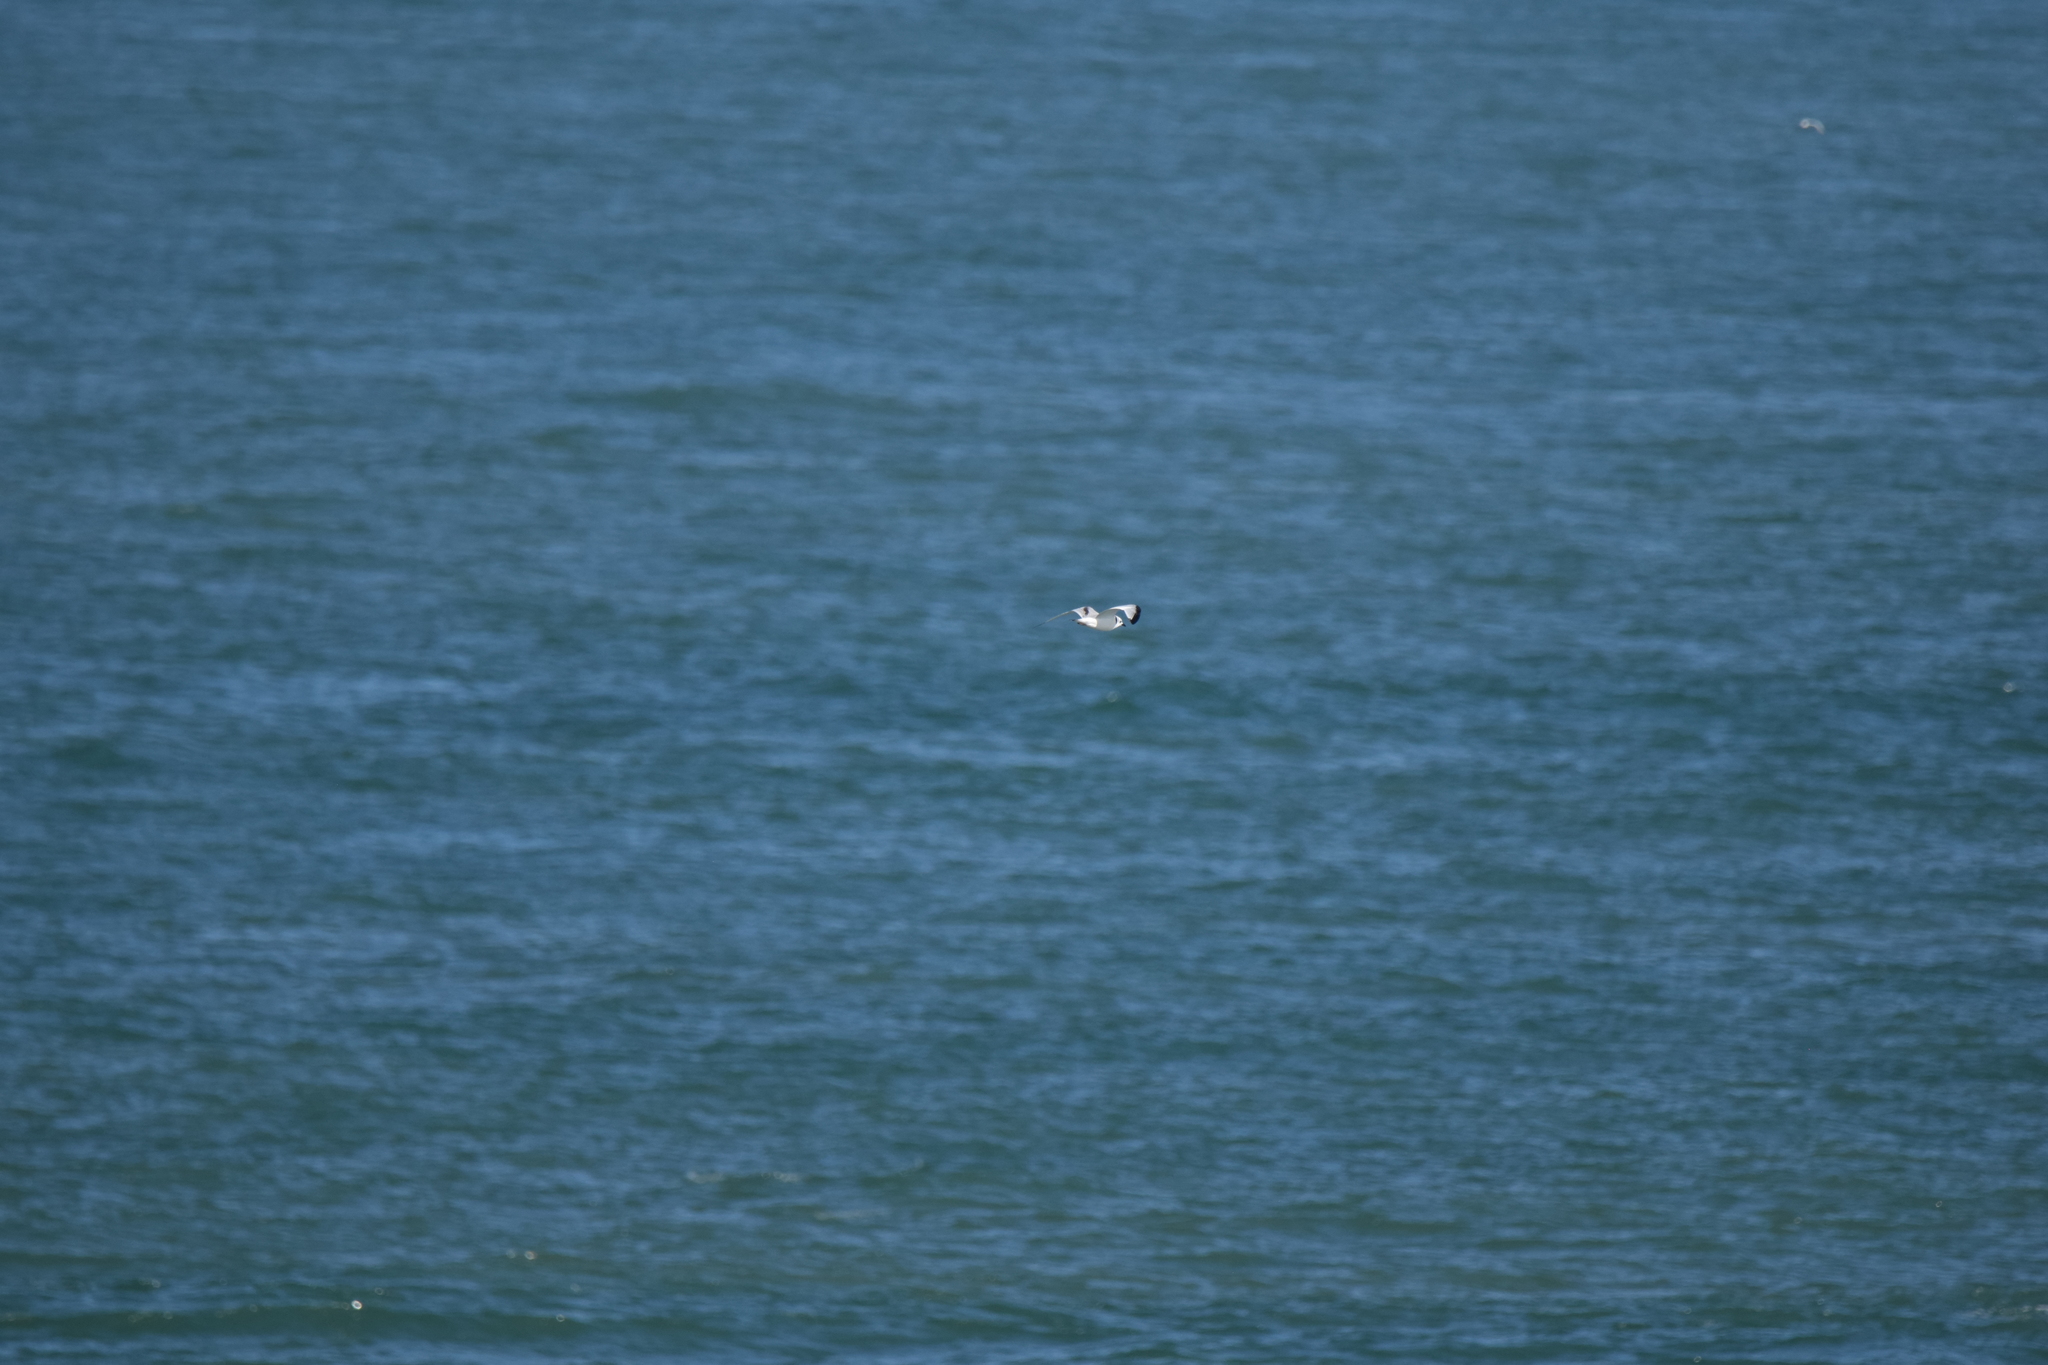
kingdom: Animalia
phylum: Chordata
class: Aves
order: Charadriiformes
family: Laridae
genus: Rissa
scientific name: Rissa tridactyla
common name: Black-legged kittiwake
